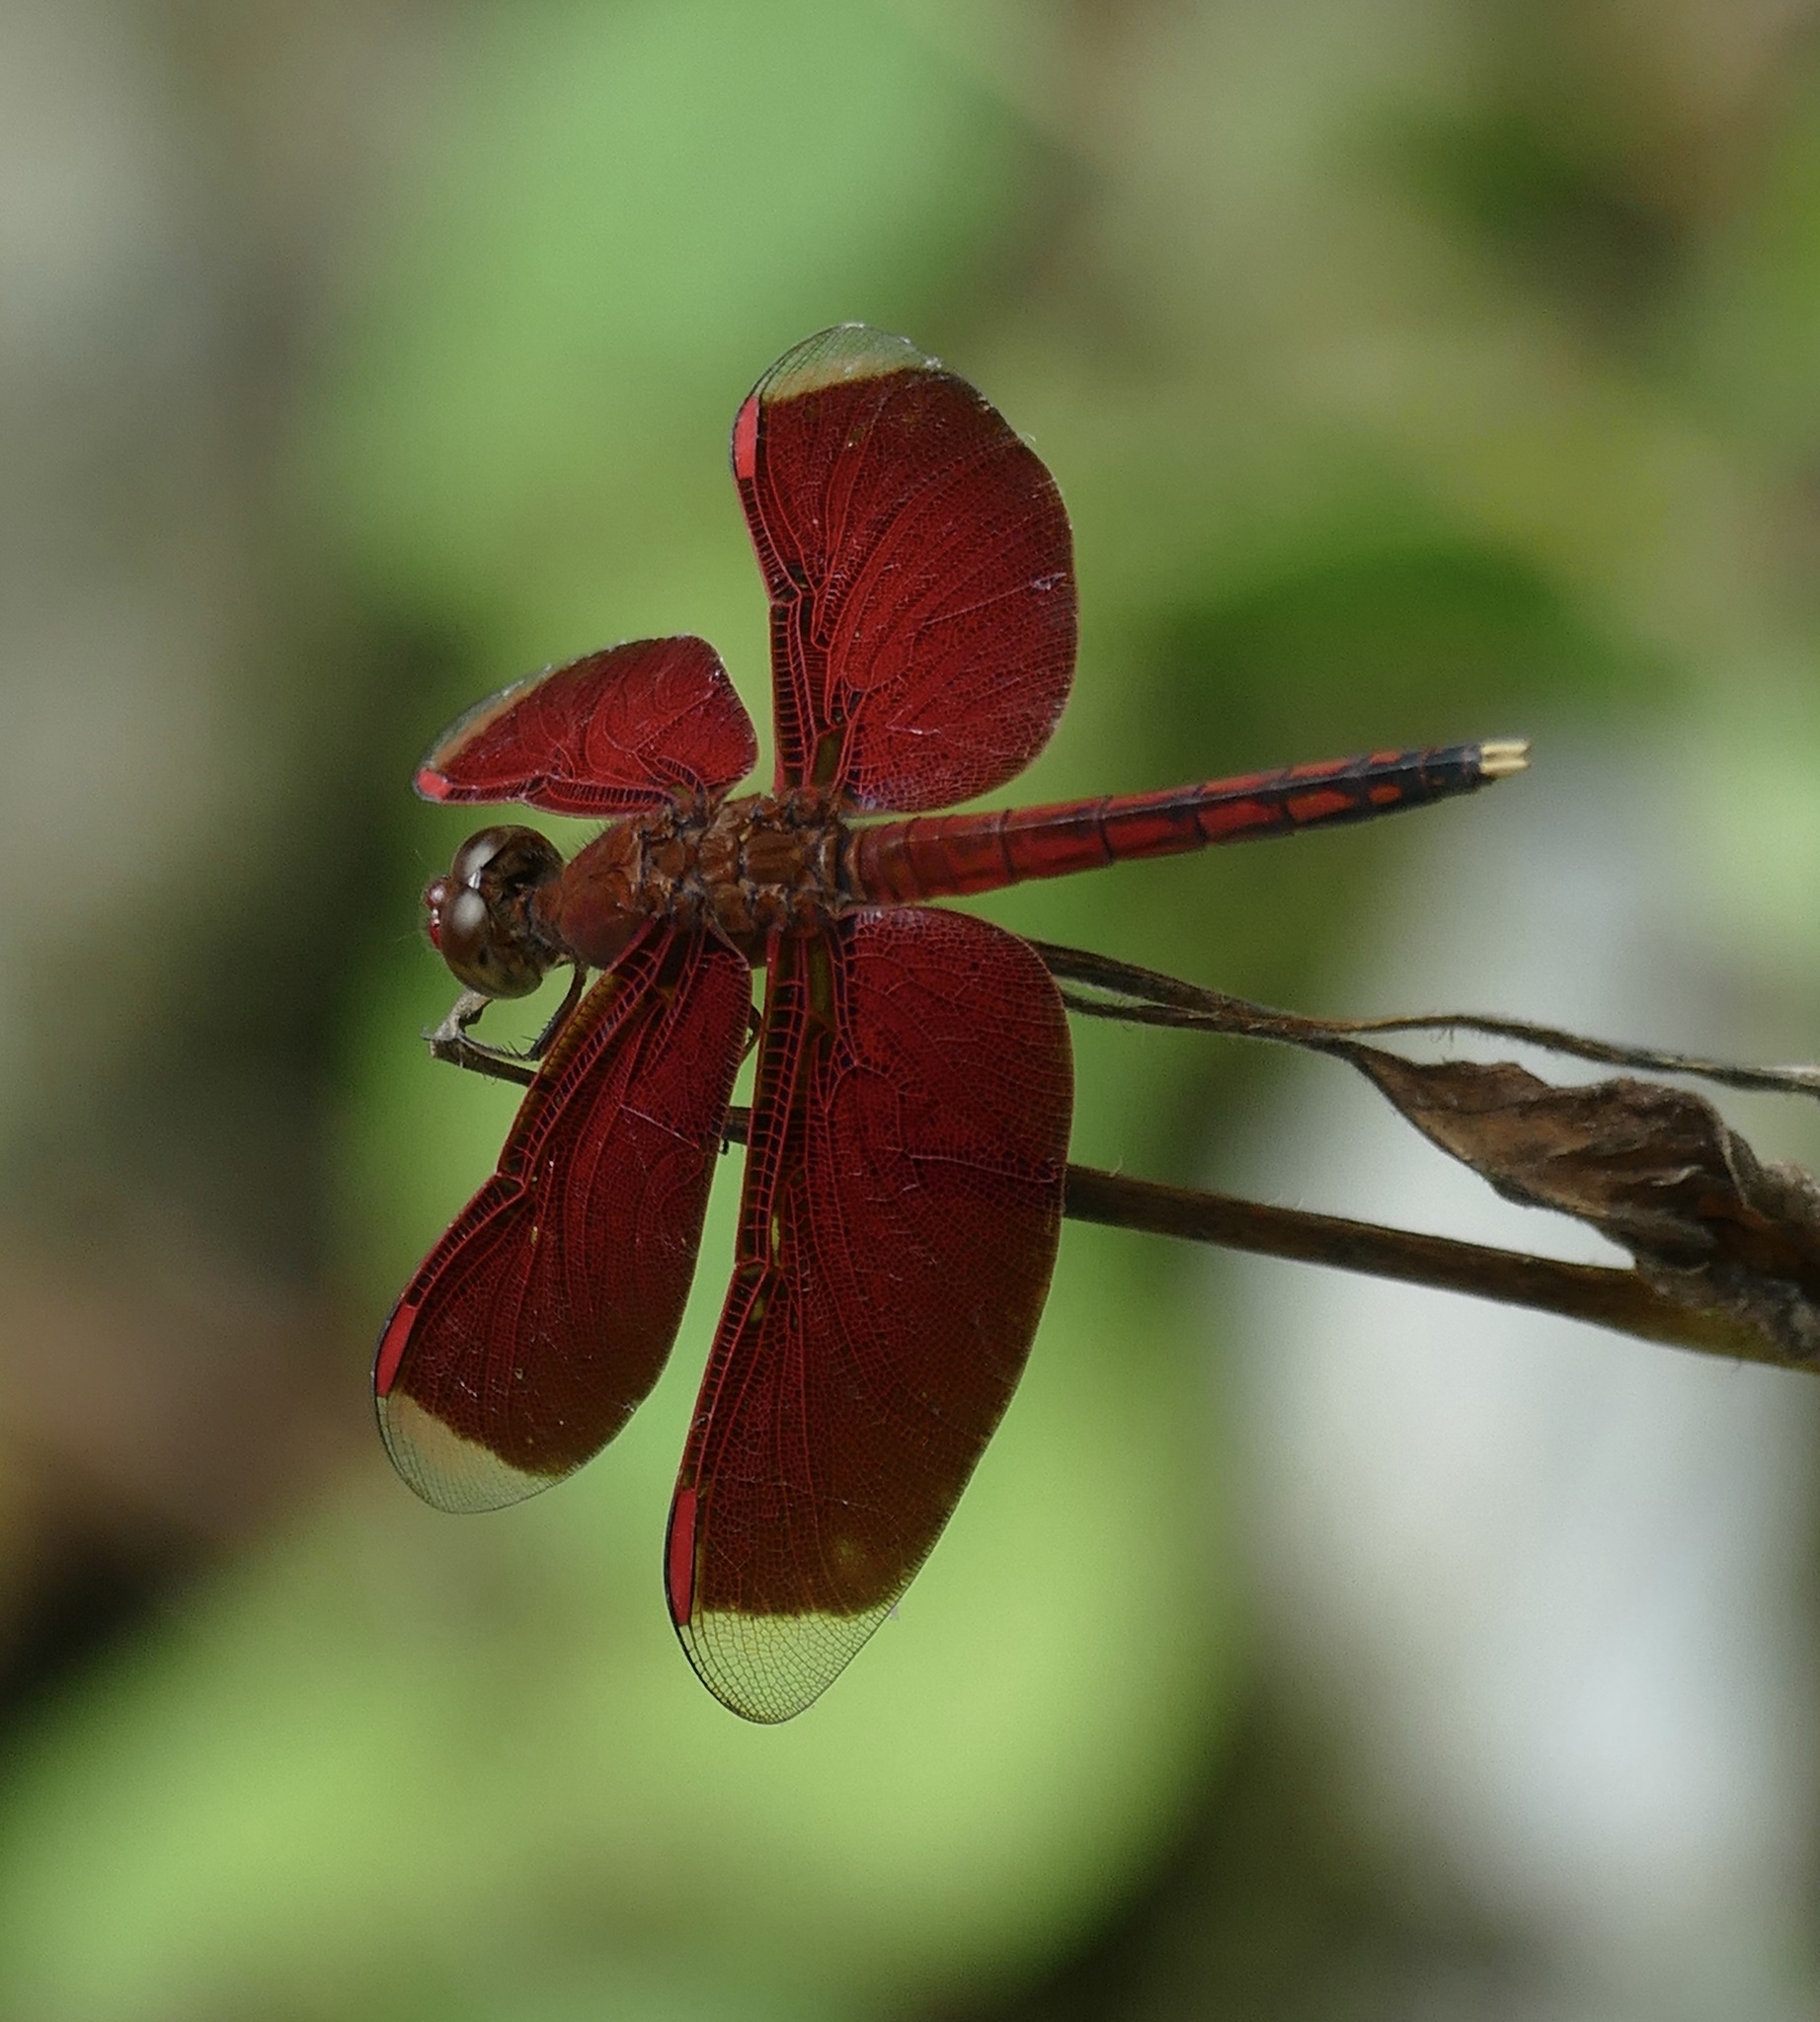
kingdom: Animalia
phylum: Arthropoda
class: Insecta
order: Odonata
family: Libellulidae
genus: Neurothemis
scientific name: Neurothemis manadensis
